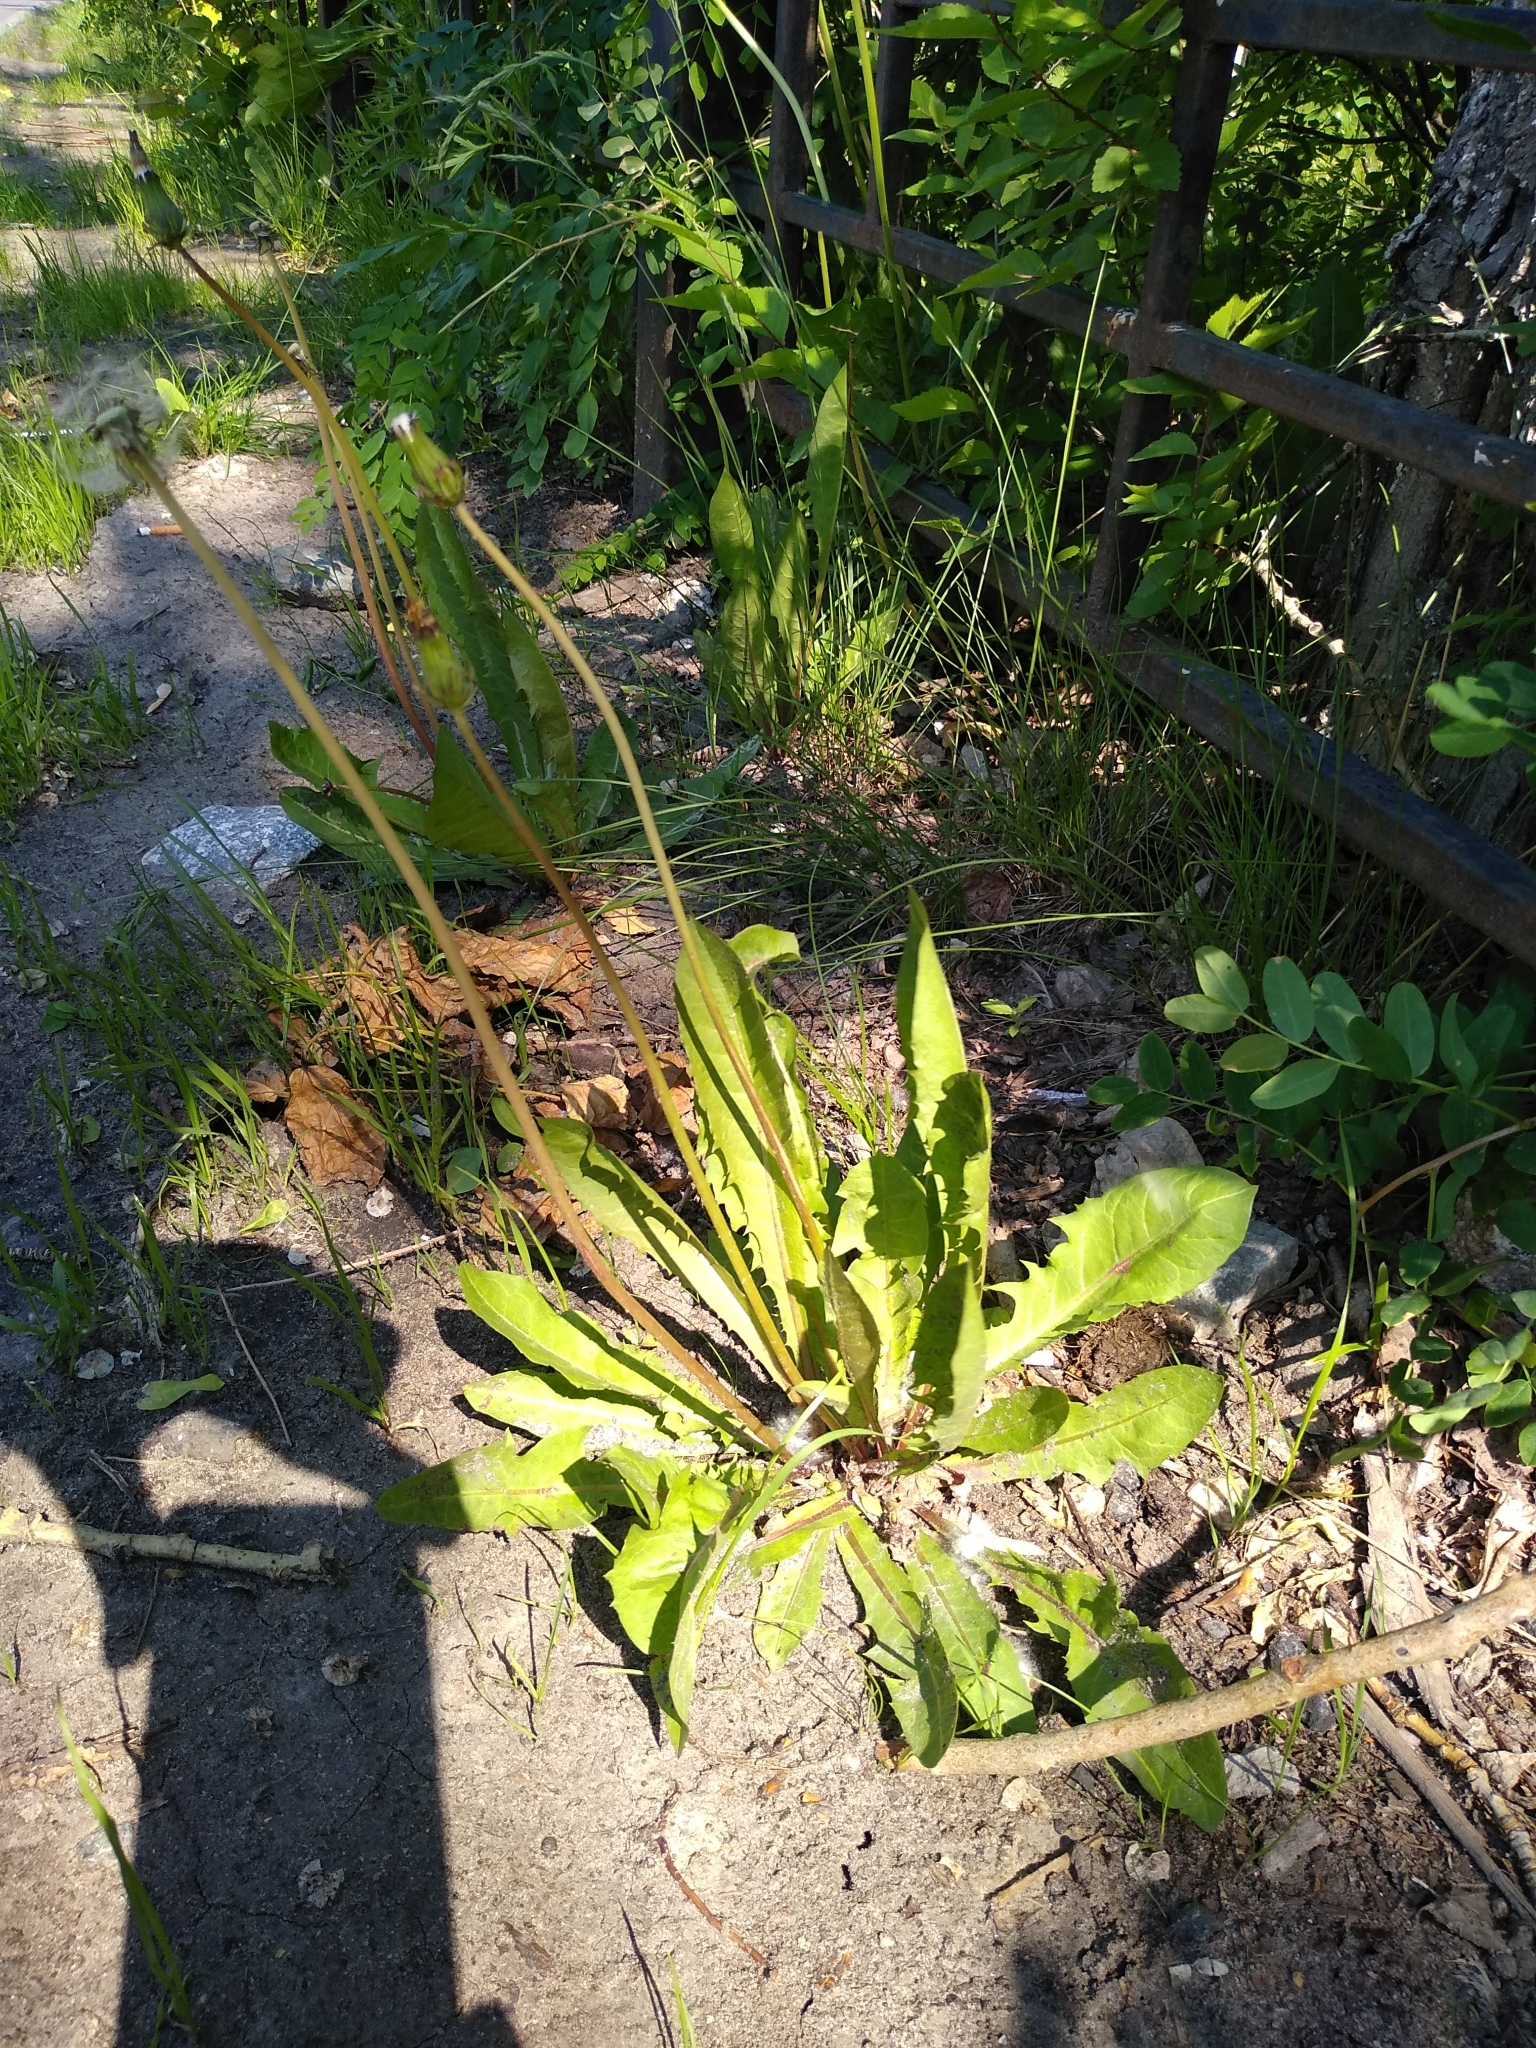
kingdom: Plantae
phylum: Tracheophyta
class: Magnoliopsida
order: Asterales
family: Asteraceae
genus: Taraxacum
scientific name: Taraxacum officinale
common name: Common dandelion
